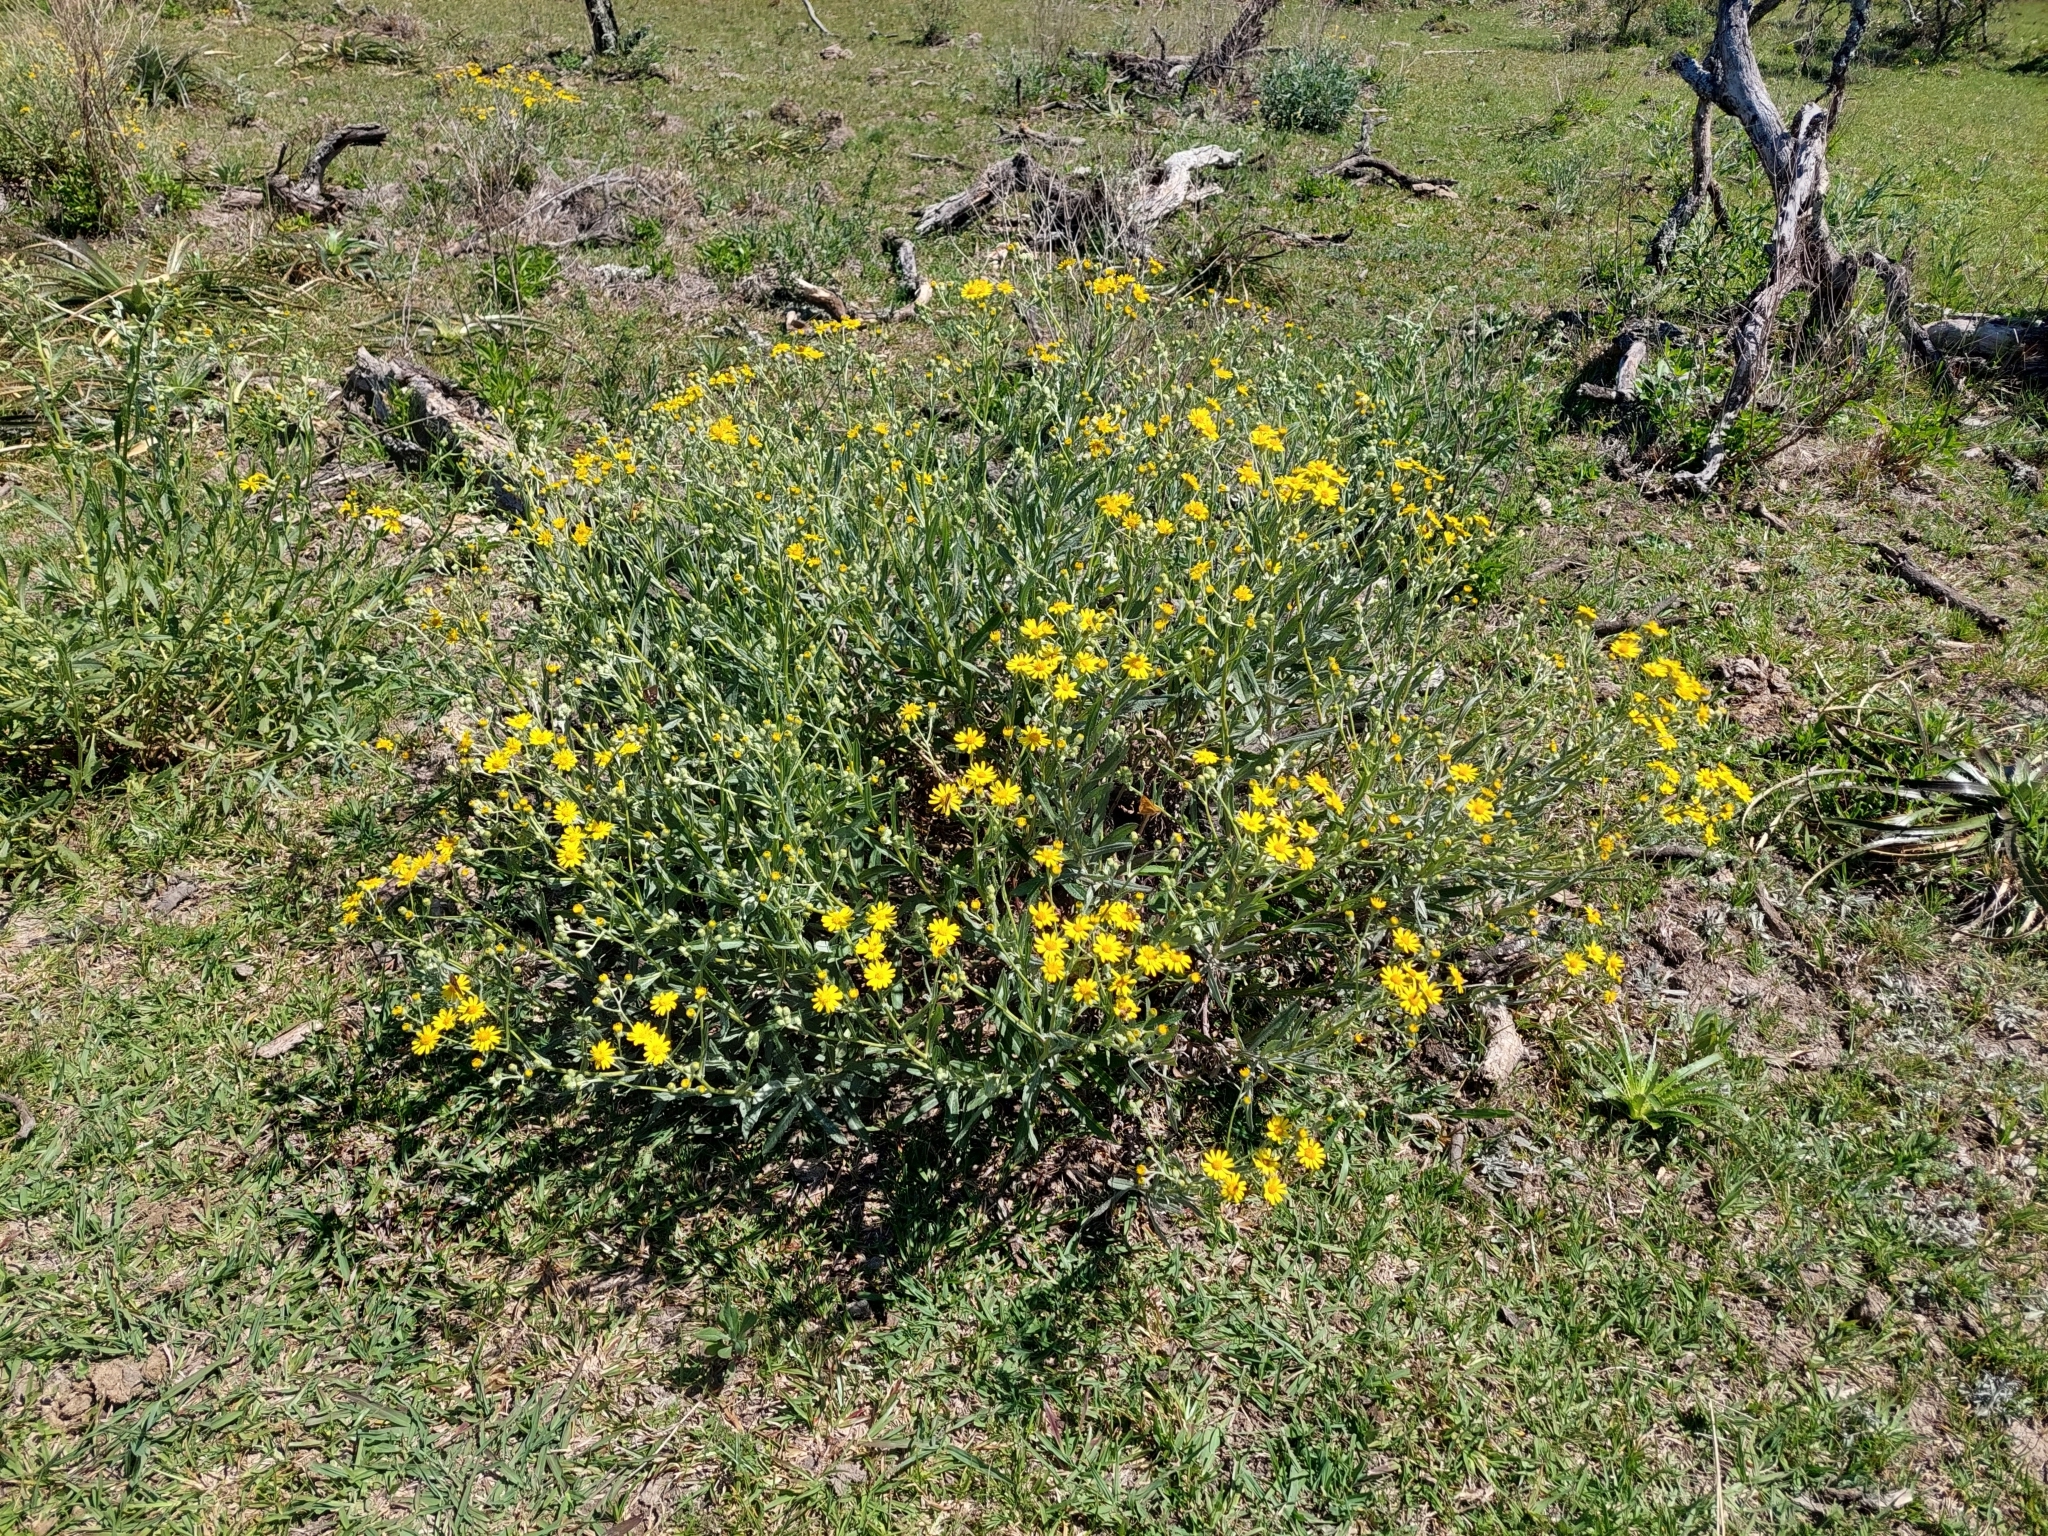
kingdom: Plantae
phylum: Tracheophyta
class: Magnoliopsida
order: Asterales
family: Asteraceae
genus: Senecio
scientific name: Senecio pterophorus
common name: Shoddy ragwort
